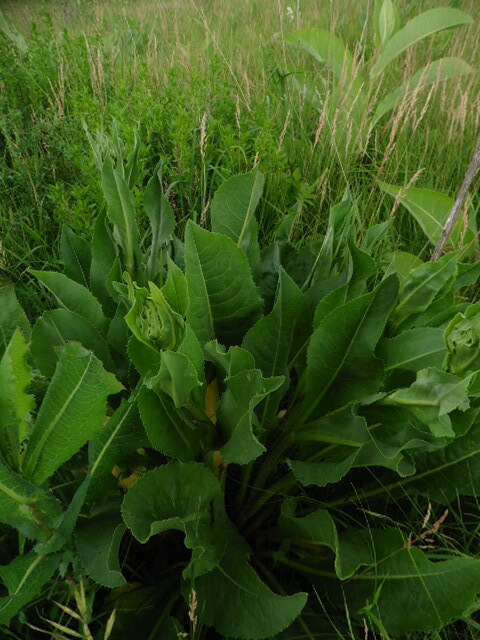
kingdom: Plantae
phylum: Tracheophyta
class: Magnoliopsida
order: Asterales
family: Asteraceae
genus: Senecio
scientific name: Senecio doria
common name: Golden ragwort
